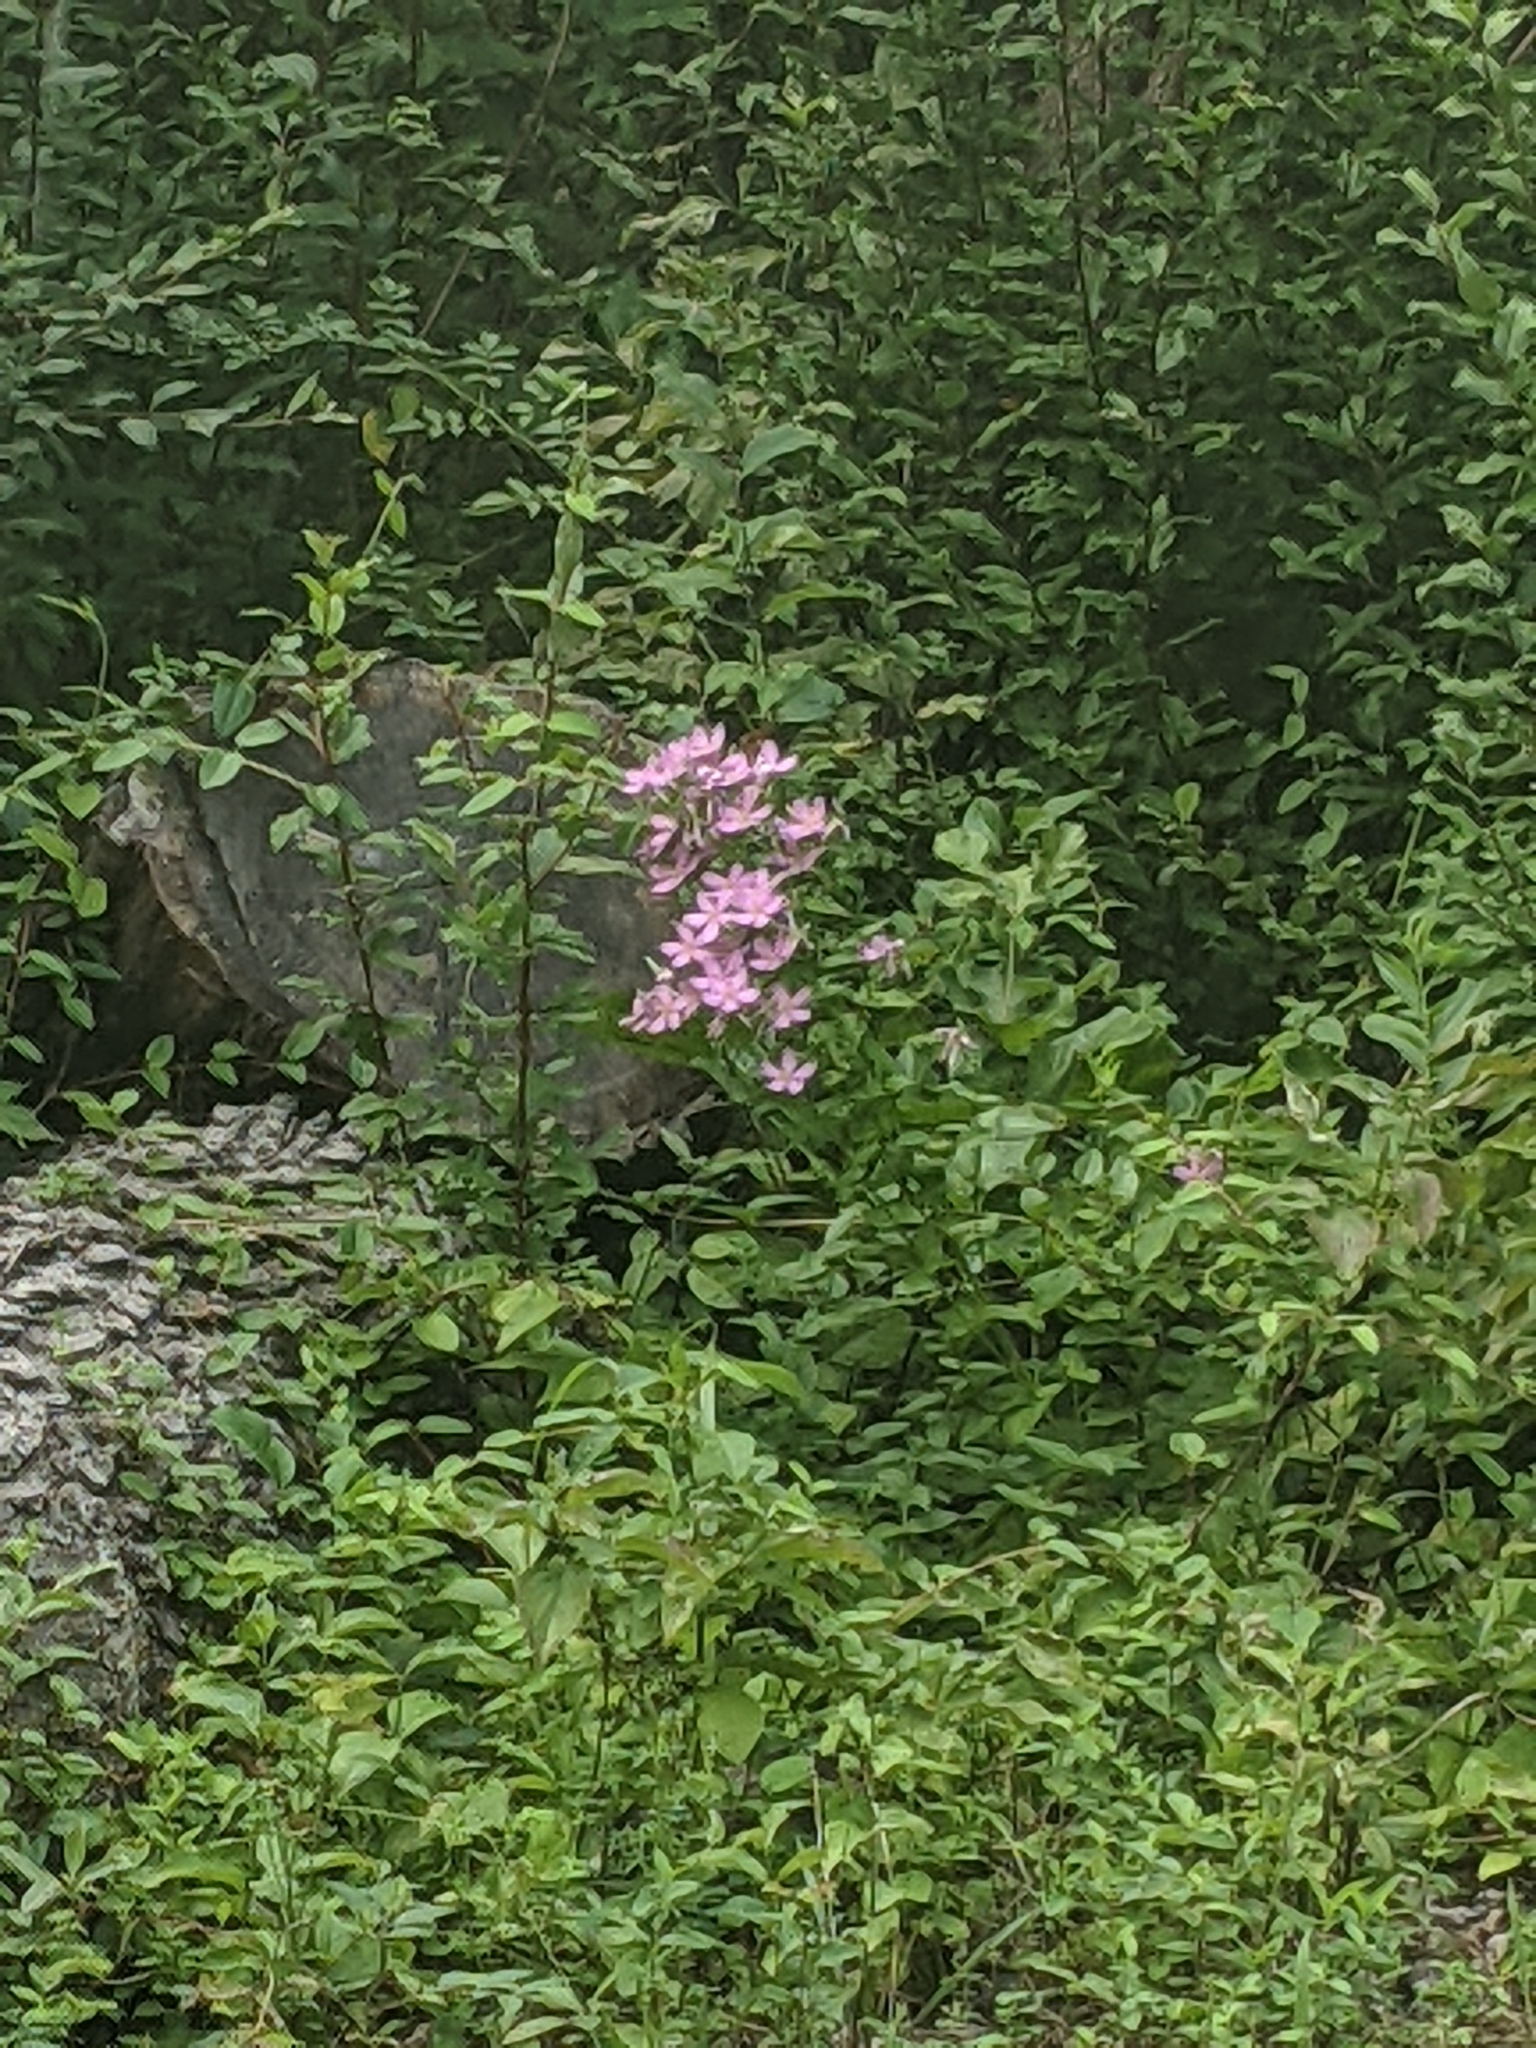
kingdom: Plantae
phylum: Tracheophyta
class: Magnoliopsida
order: Gentianales
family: Gentianaceae
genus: Sabatia
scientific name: Sabatia angularis
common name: Rose-pink
